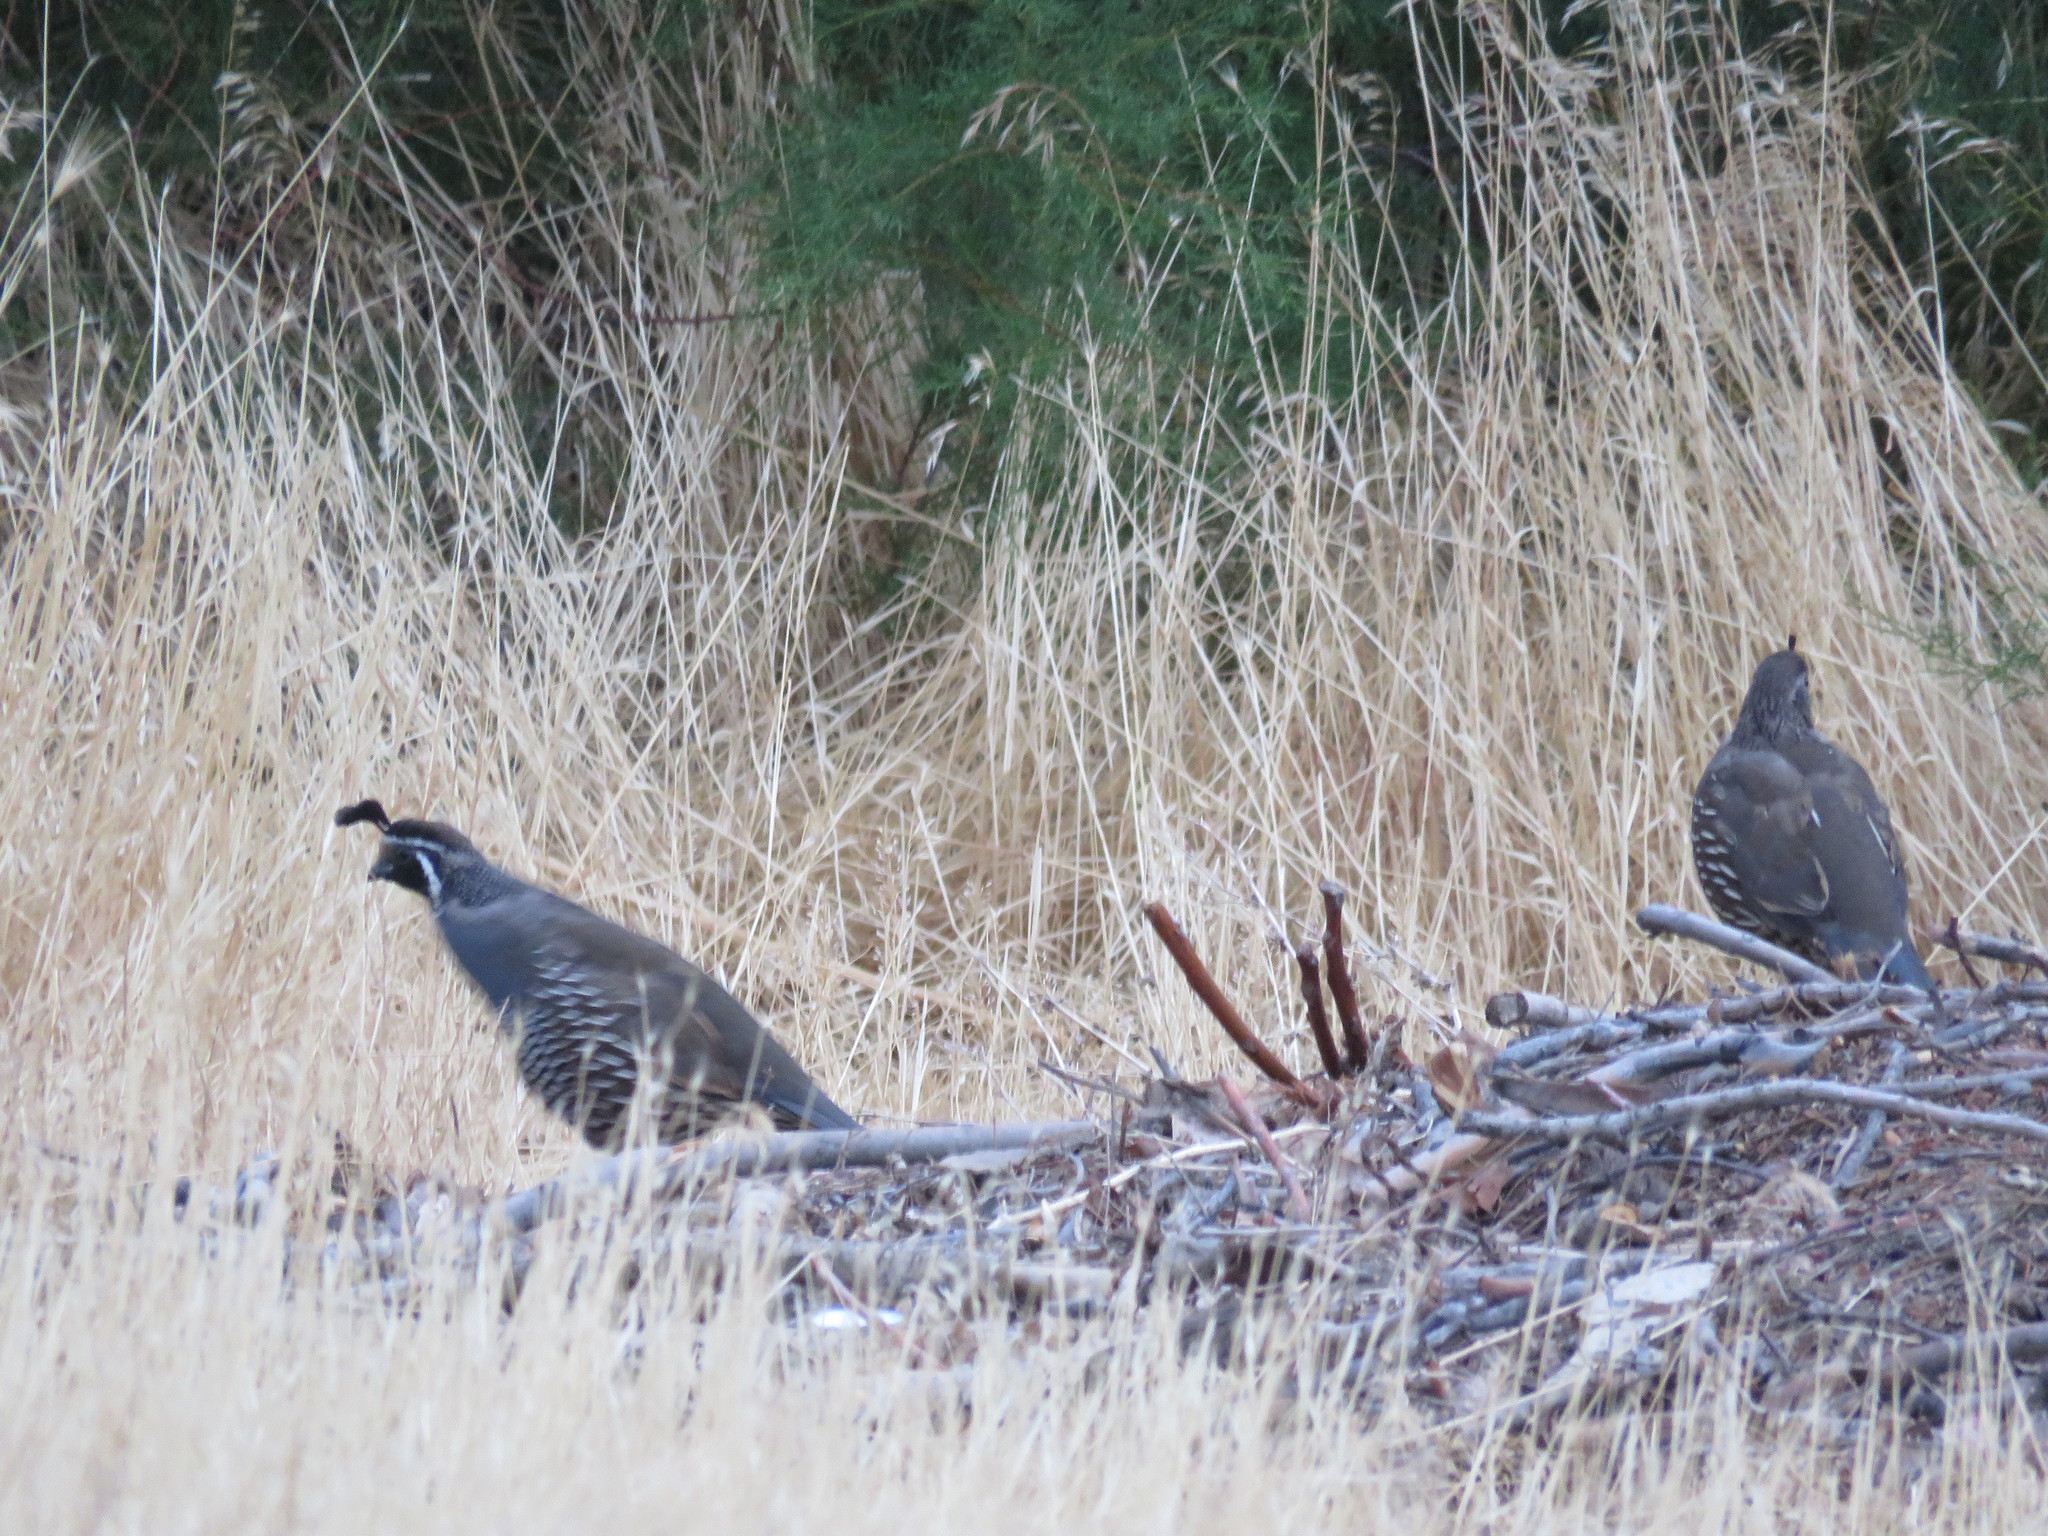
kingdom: Animalia
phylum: Chordata
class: Aves
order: Galliformes
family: Odontophoridae
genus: Callipepla
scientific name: Callipepla californica
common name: California quail
